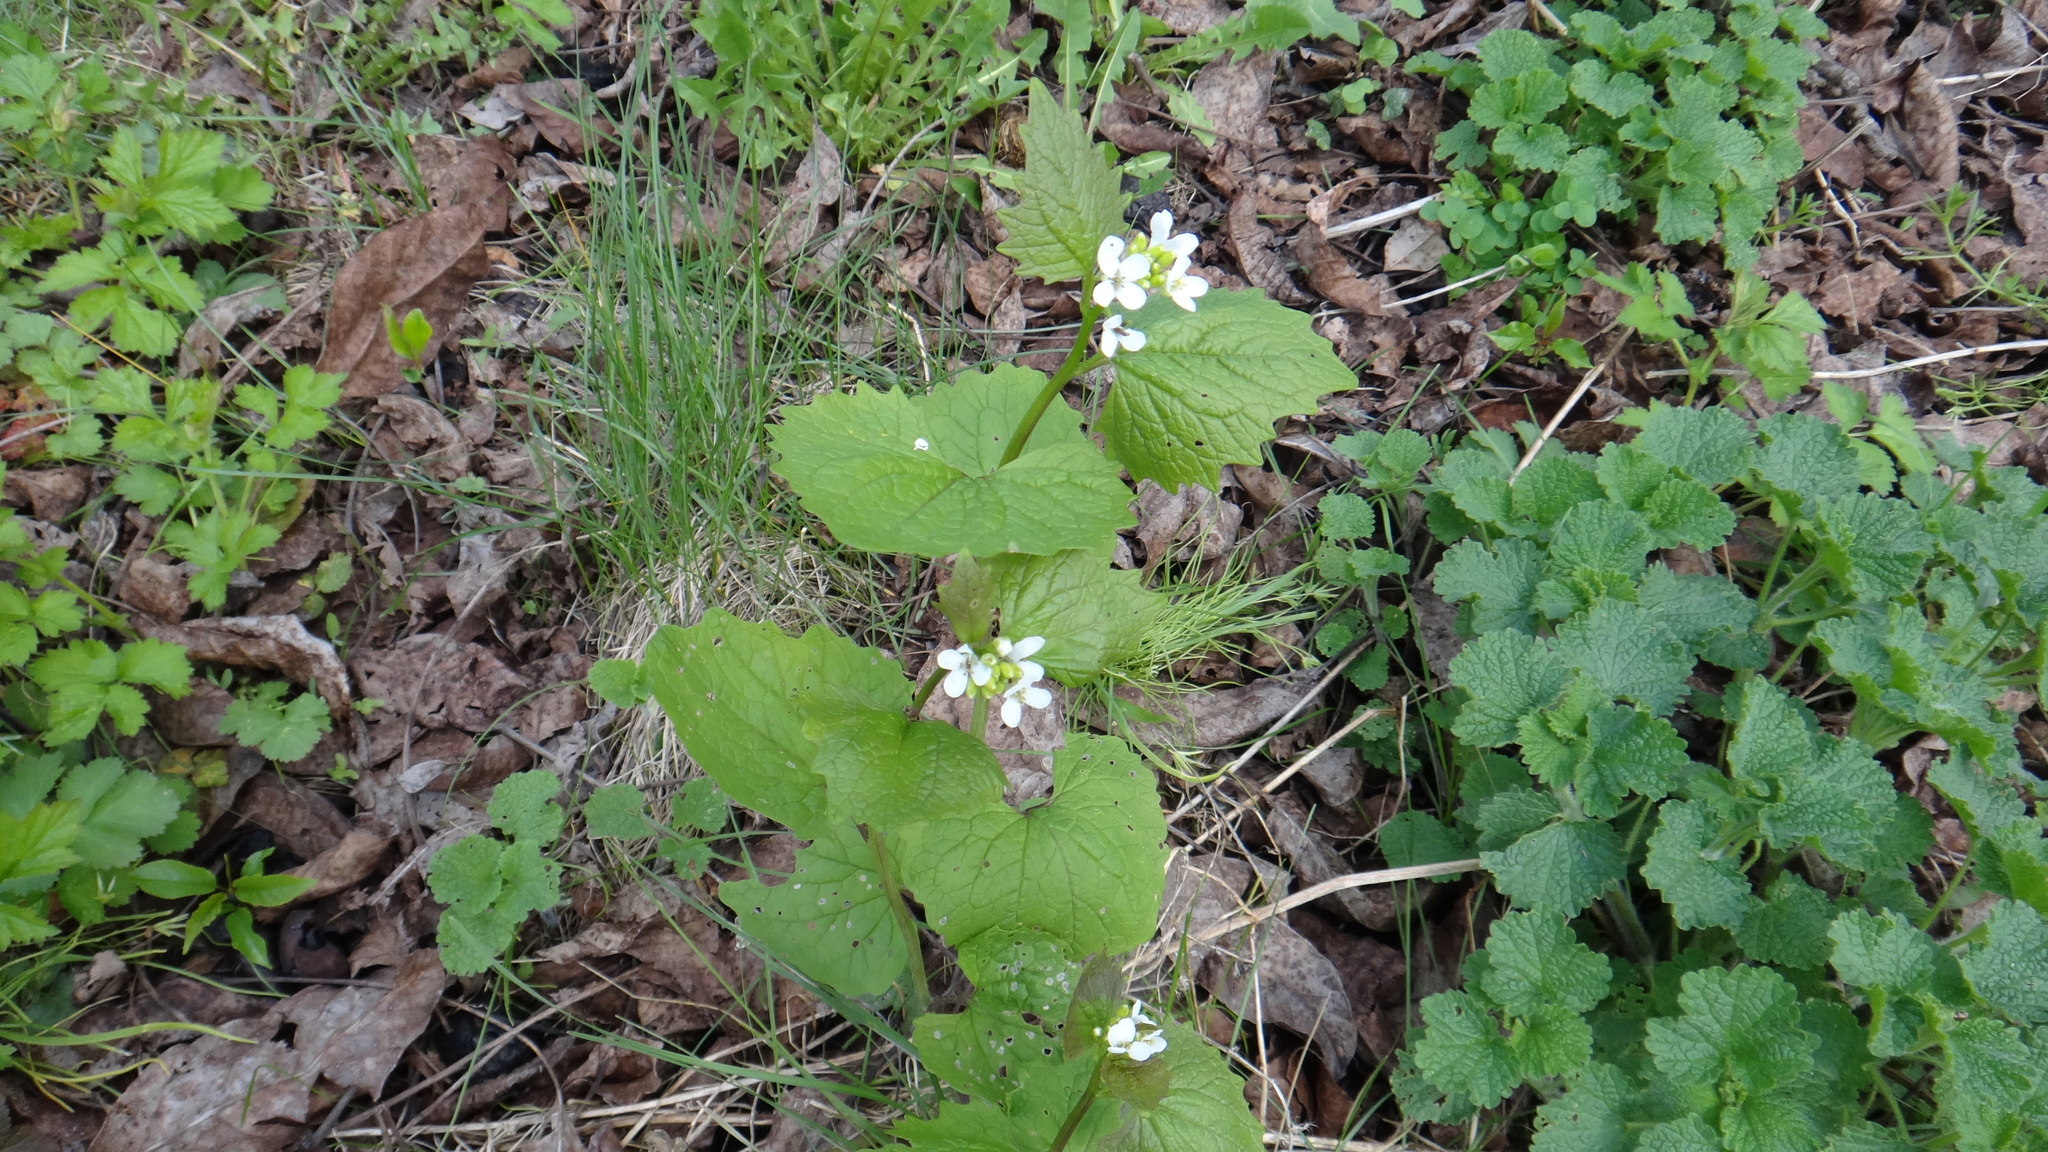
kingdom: Plantae
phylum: Tracheophyta
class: Magnoliopsida
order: Brassicales
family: Brassicaceae
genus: Alliaria
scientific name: Alliaria petiolata
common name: Garlic mustard
